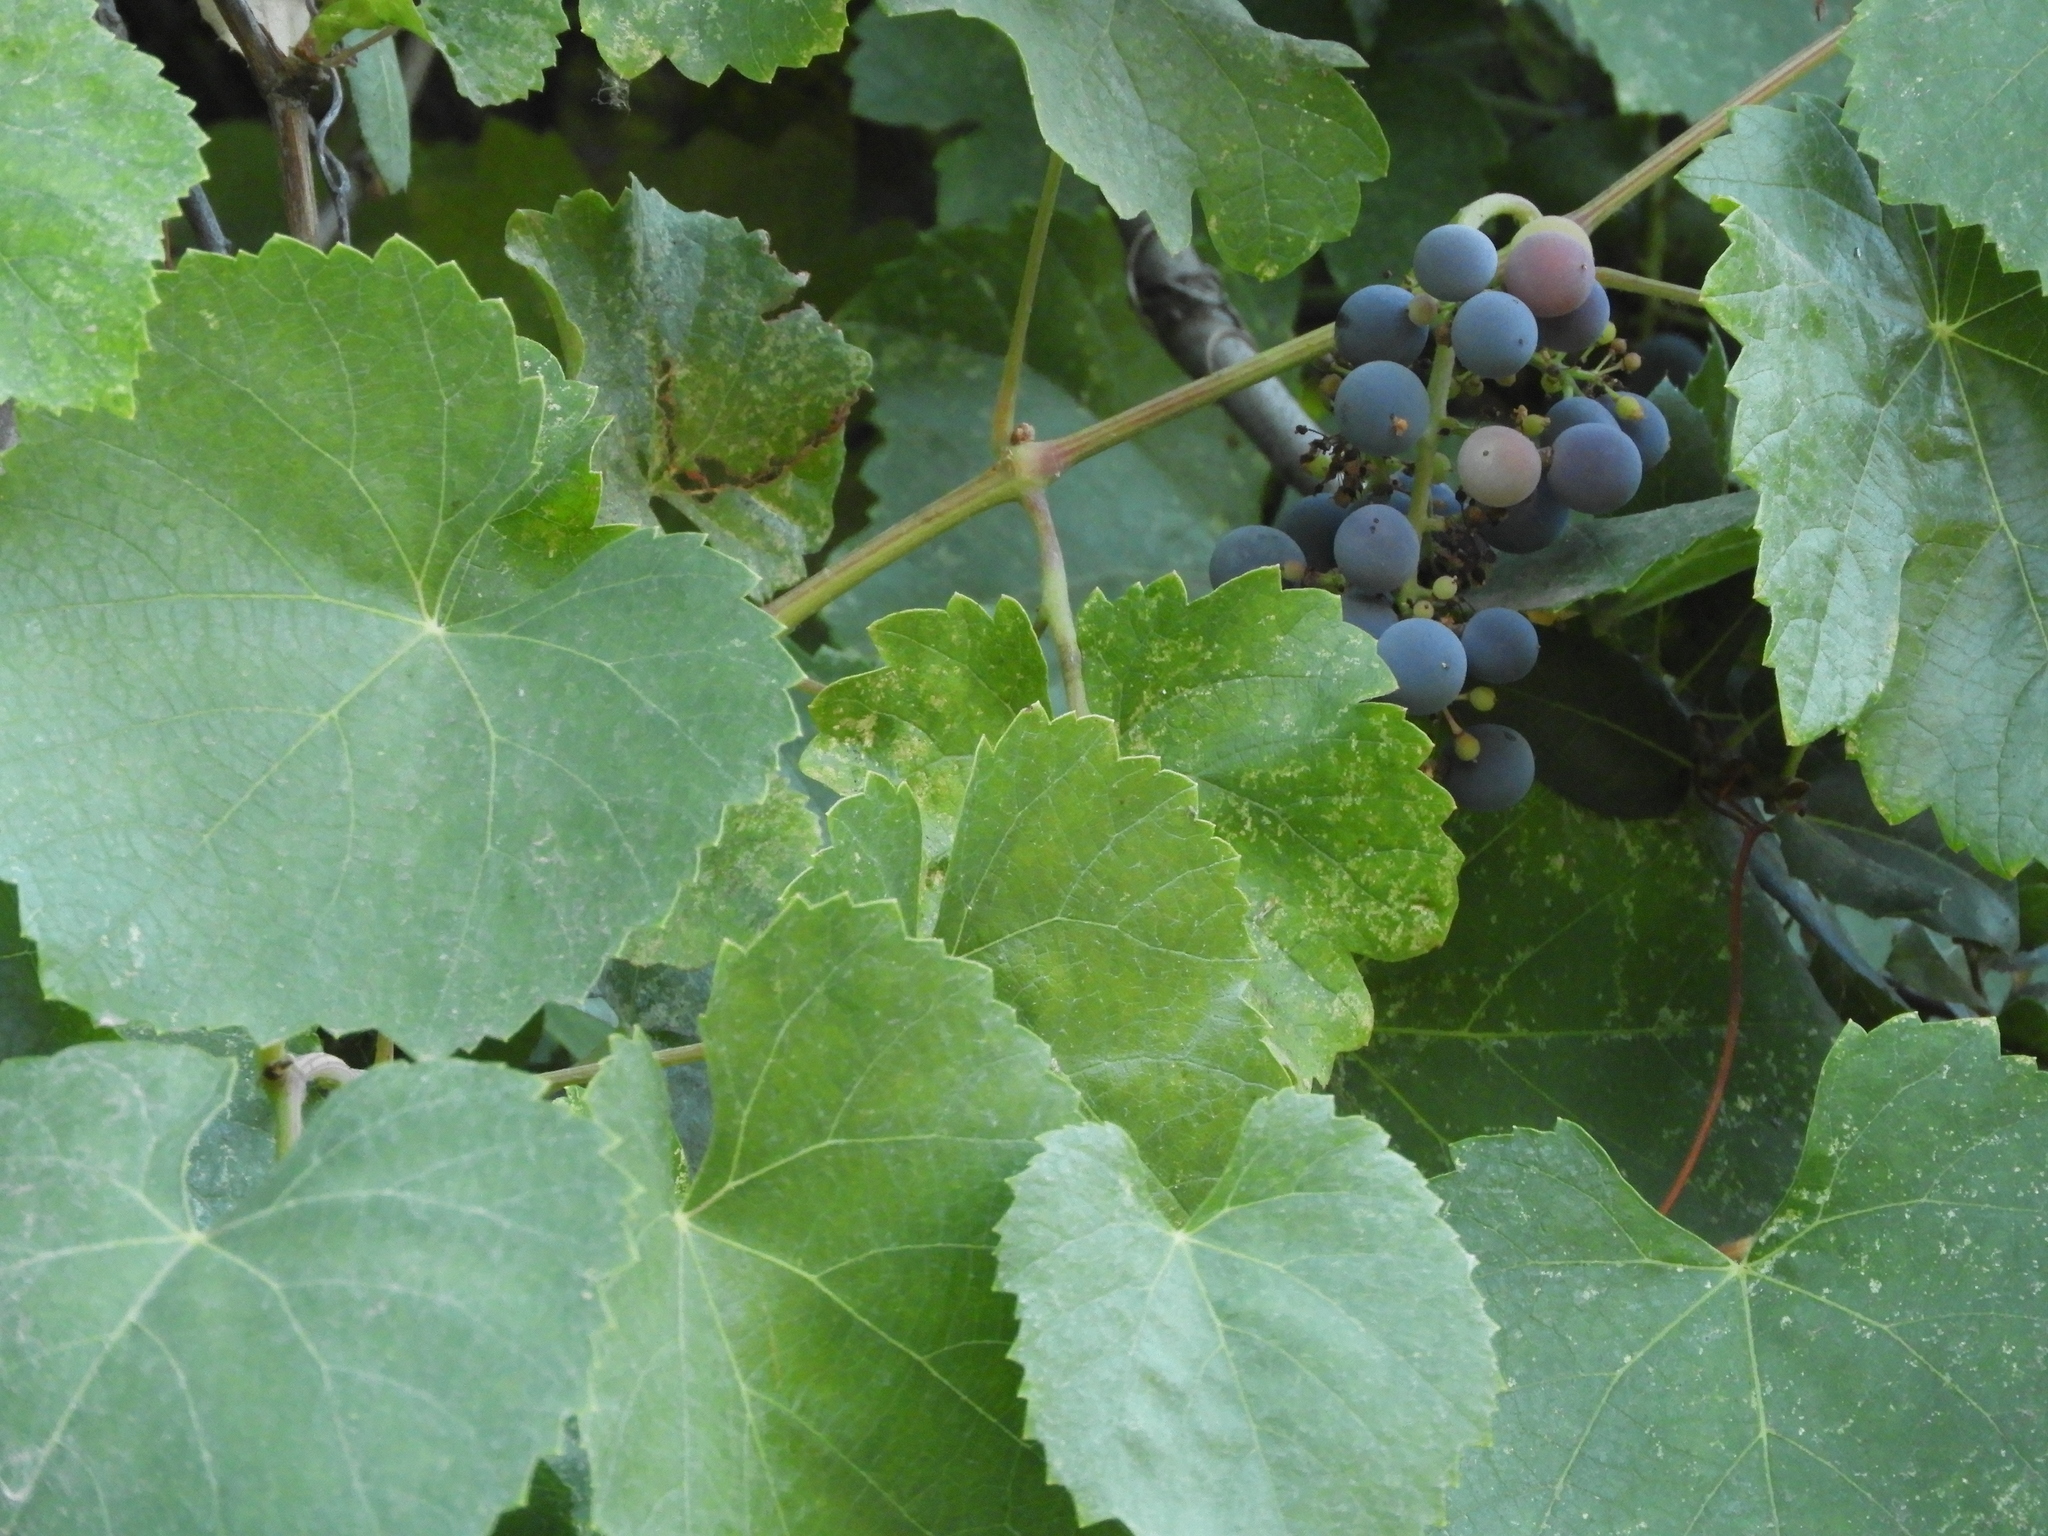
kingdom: Plantae
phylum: Tracheophyta
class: Magnoliopsida
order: Vitales
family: Vitaceae
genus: Vitis
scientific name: Vitis californica
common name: California wild grape
